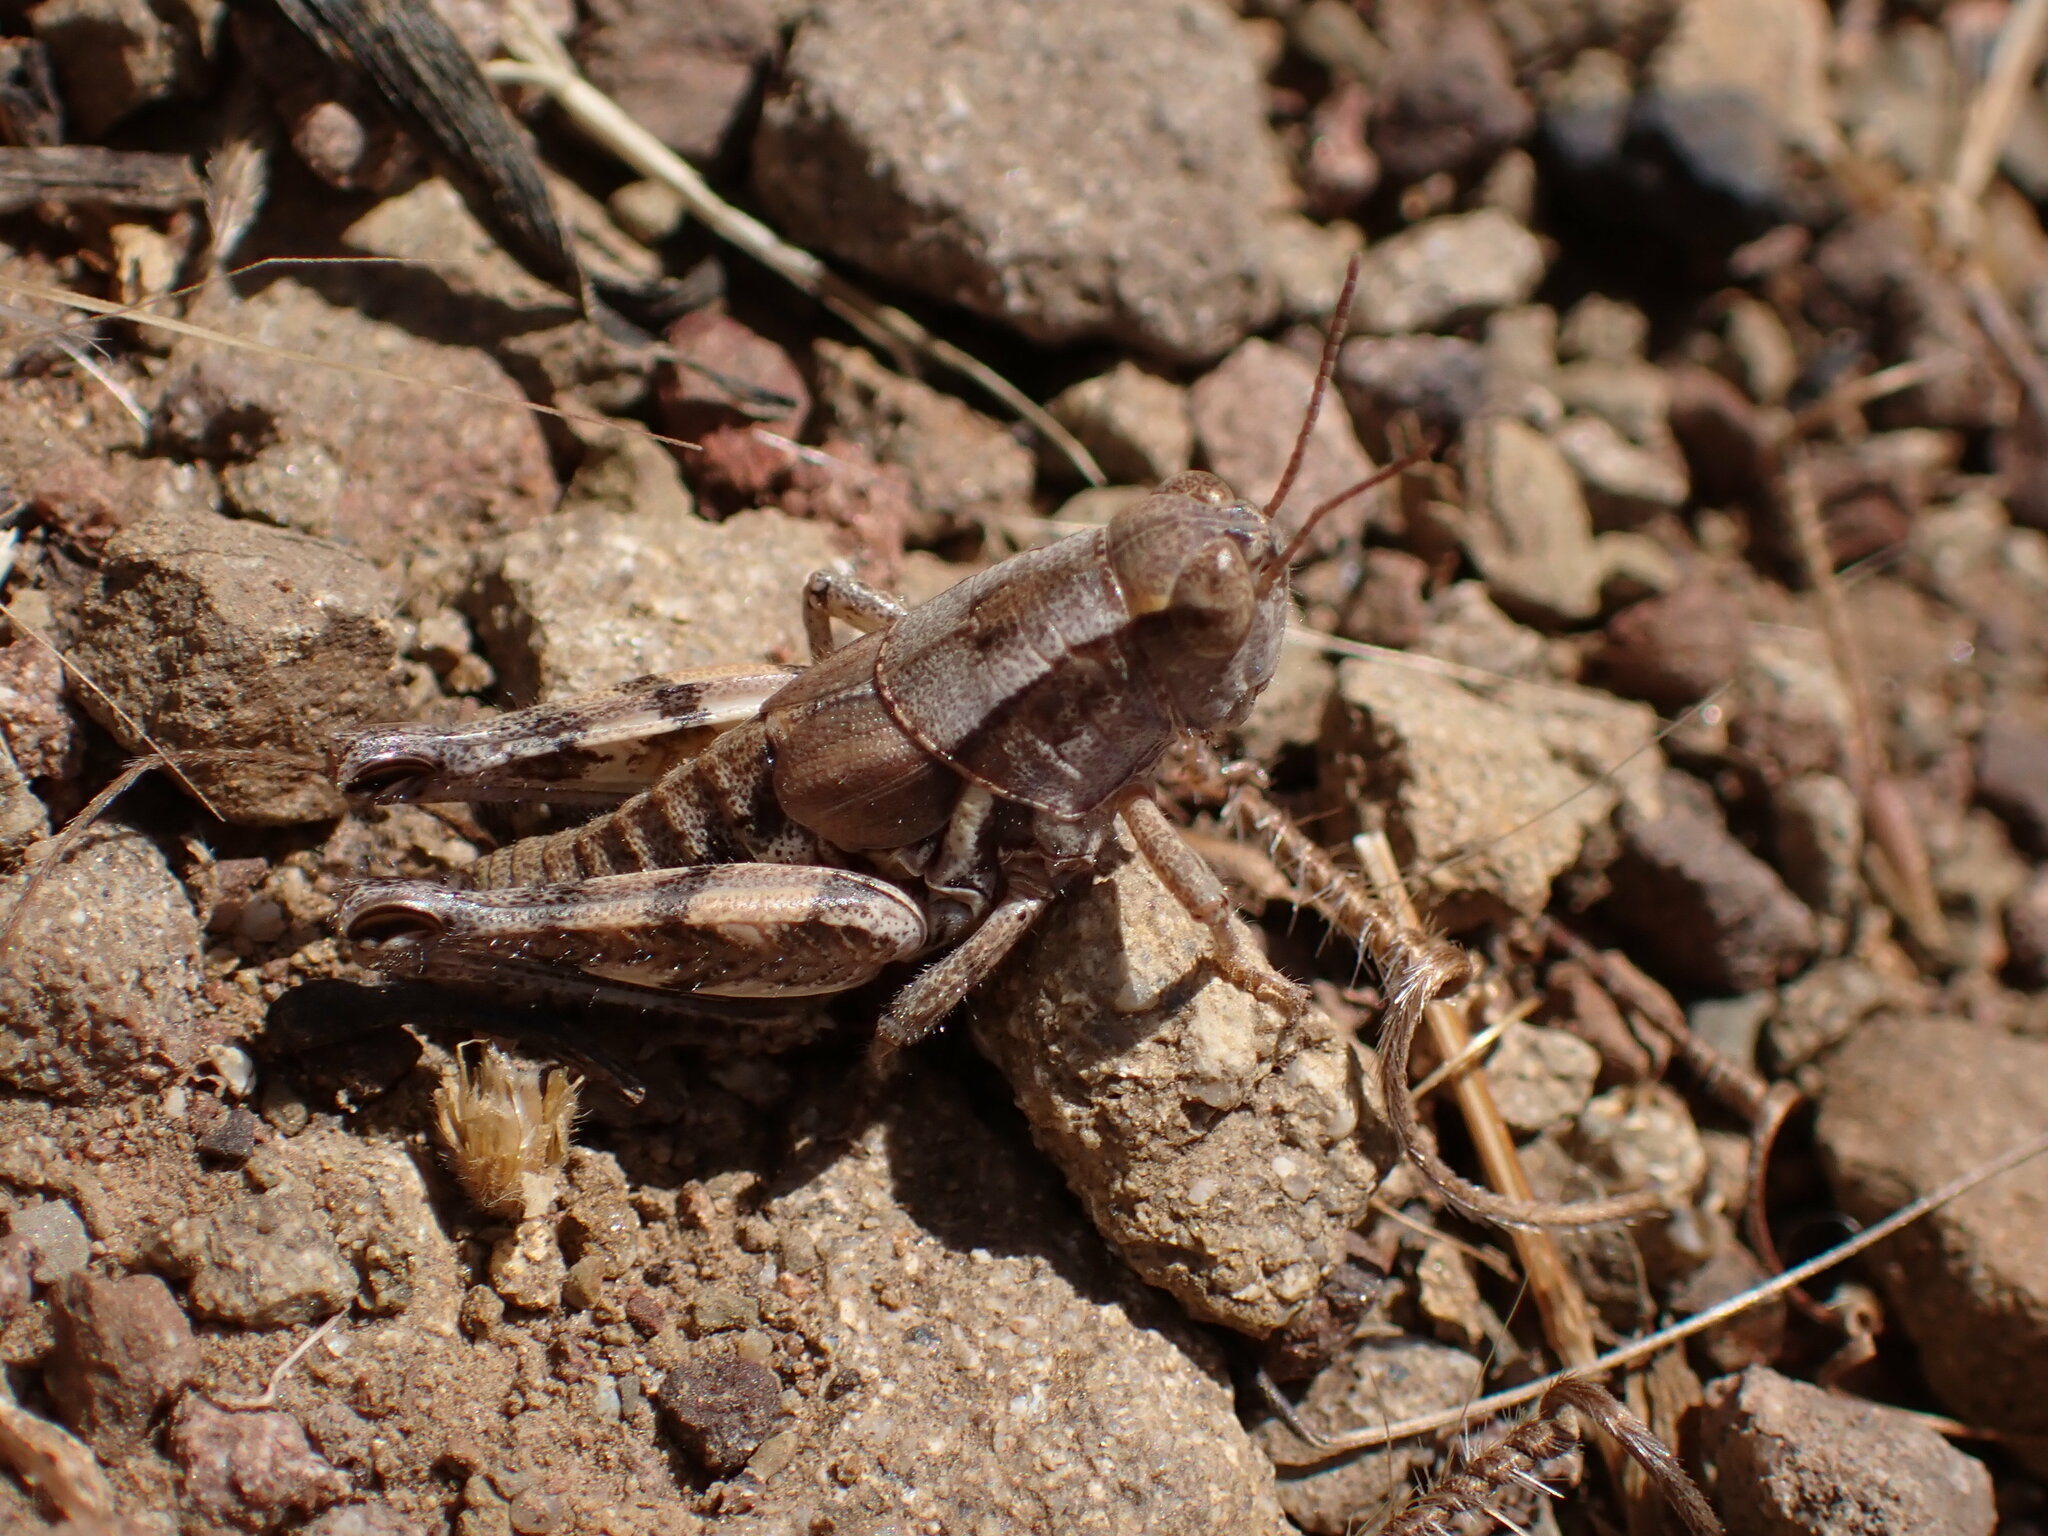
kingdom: Animalia
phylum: Arthropoda
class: Insecta
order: Orthoptera
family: Acrididae
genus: Oedaleonotus
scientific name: Oedaleonotus phryneicus
